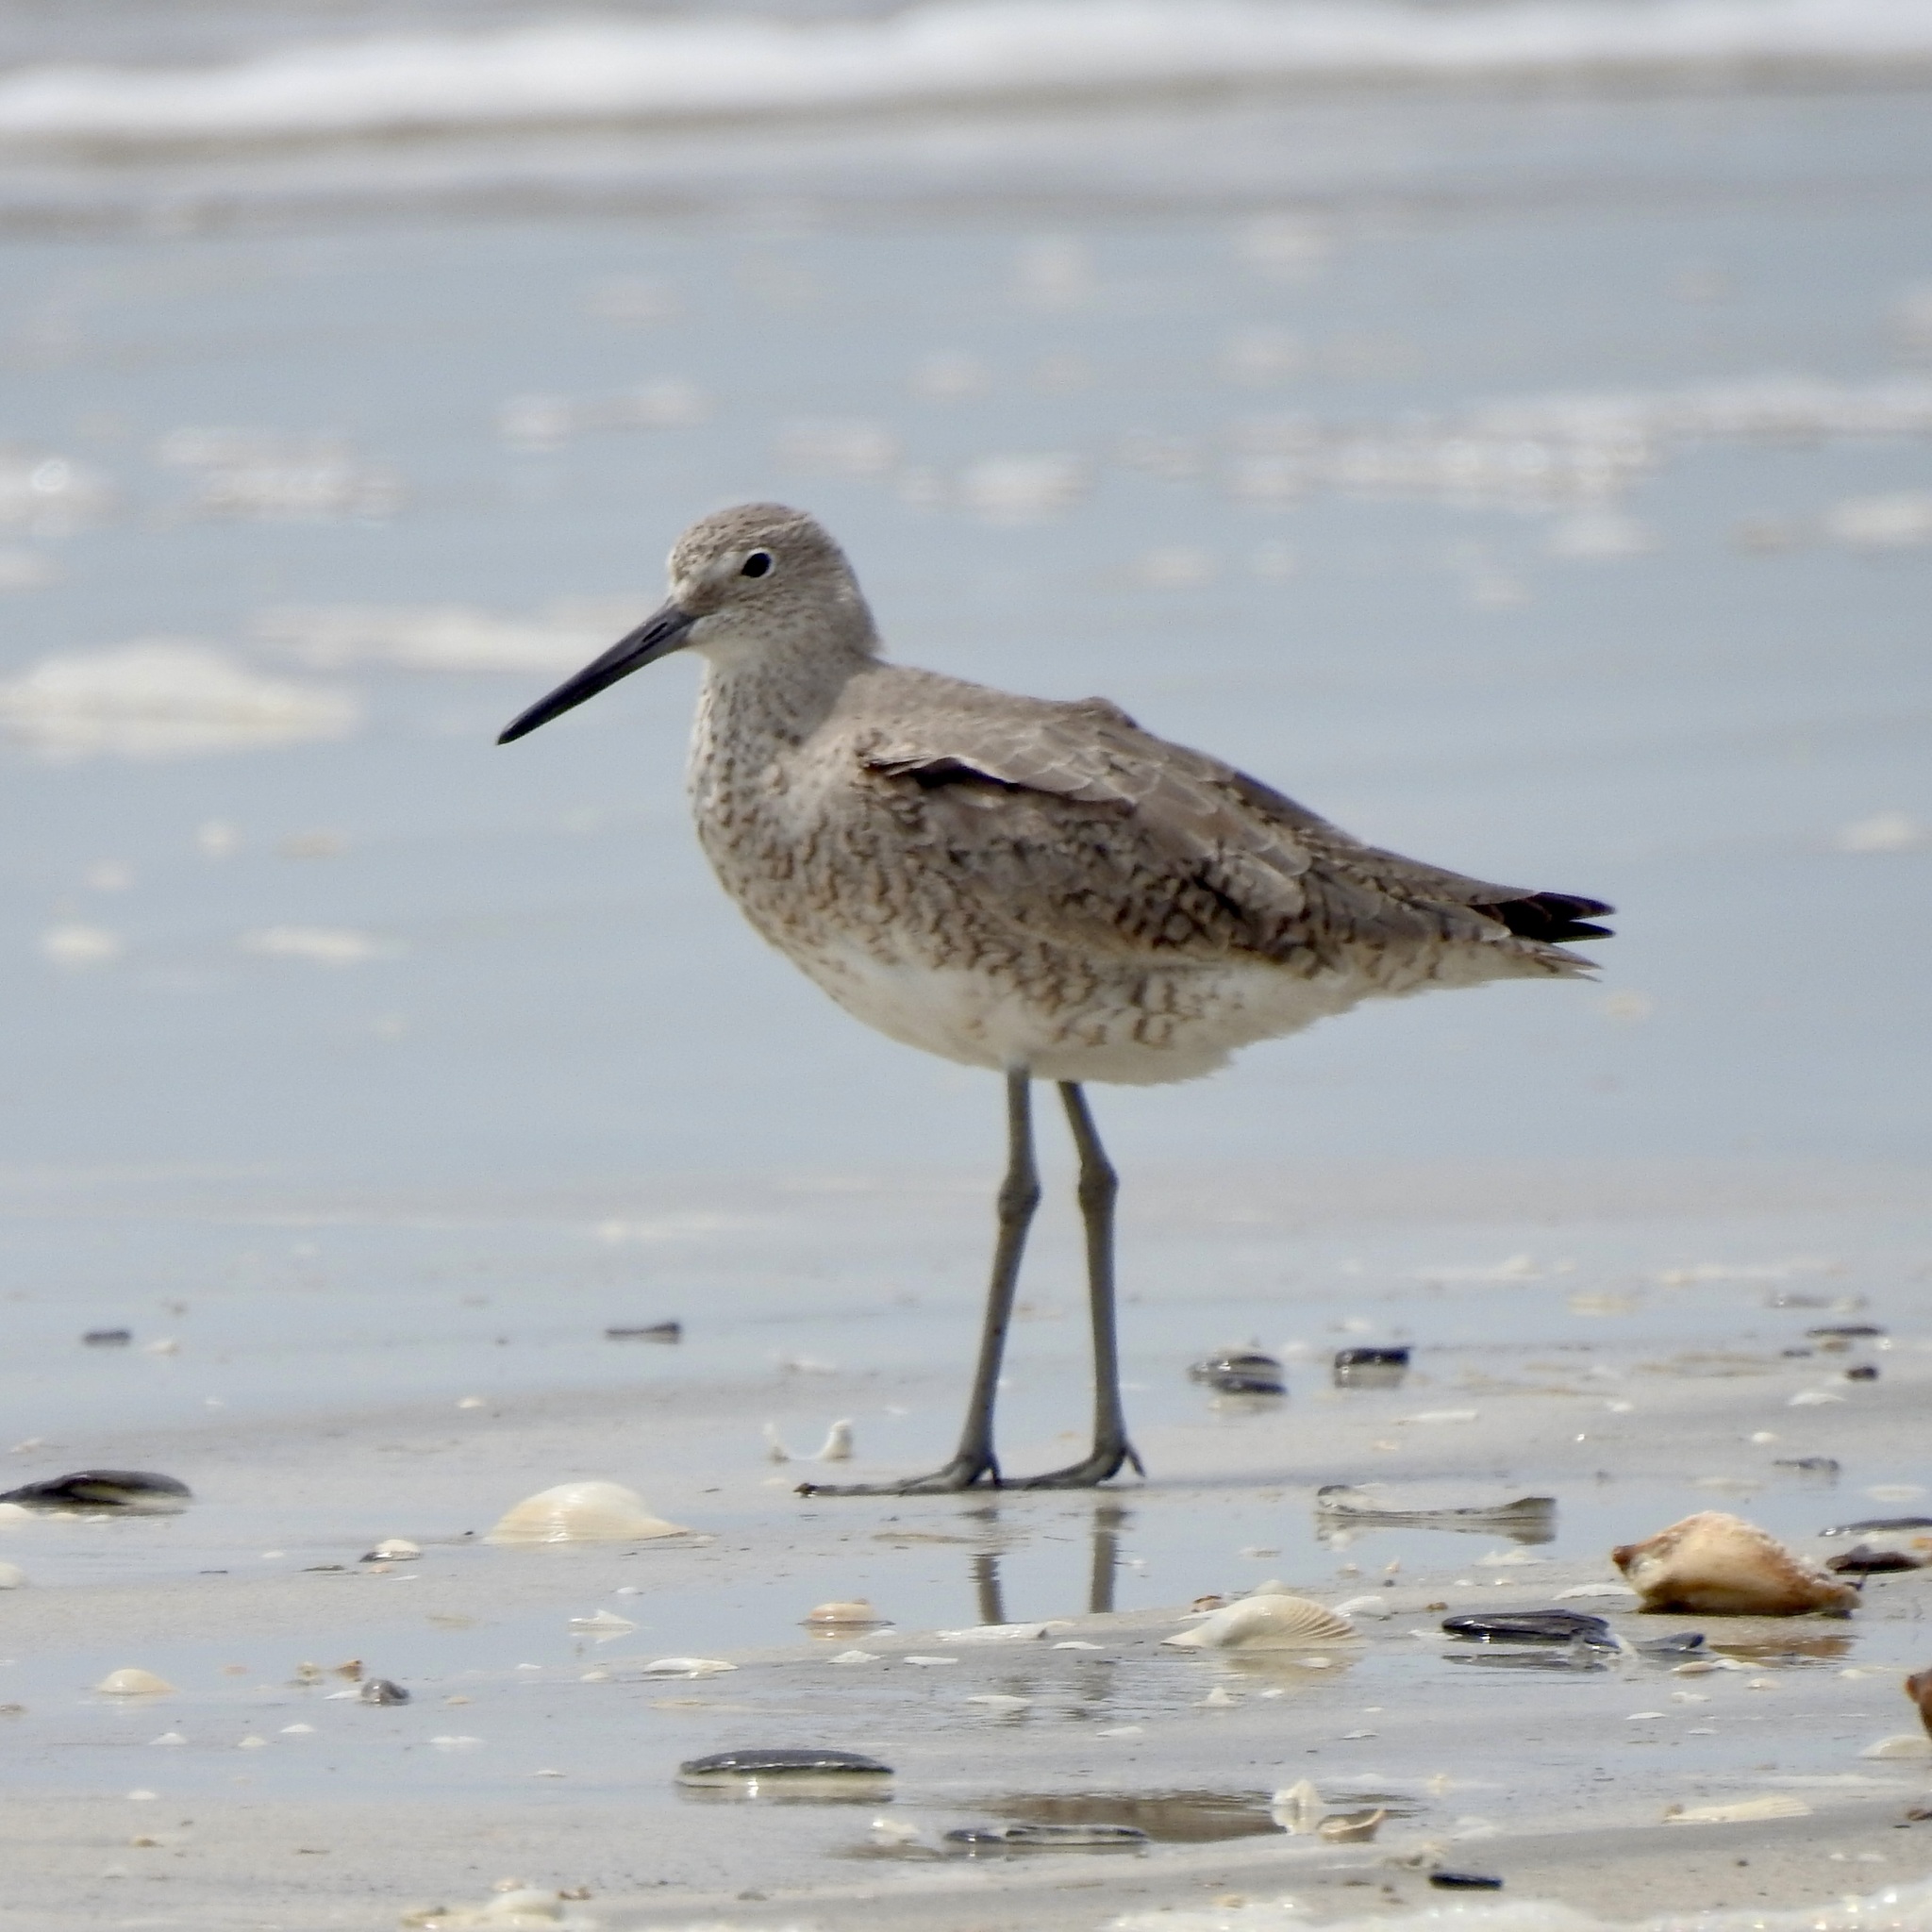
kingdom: Animalia
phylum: Chordata
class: Aves
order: Charadriiformes
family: Scolopacidae
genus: Tringa
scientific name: Tringa semipalmata
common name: Willet
